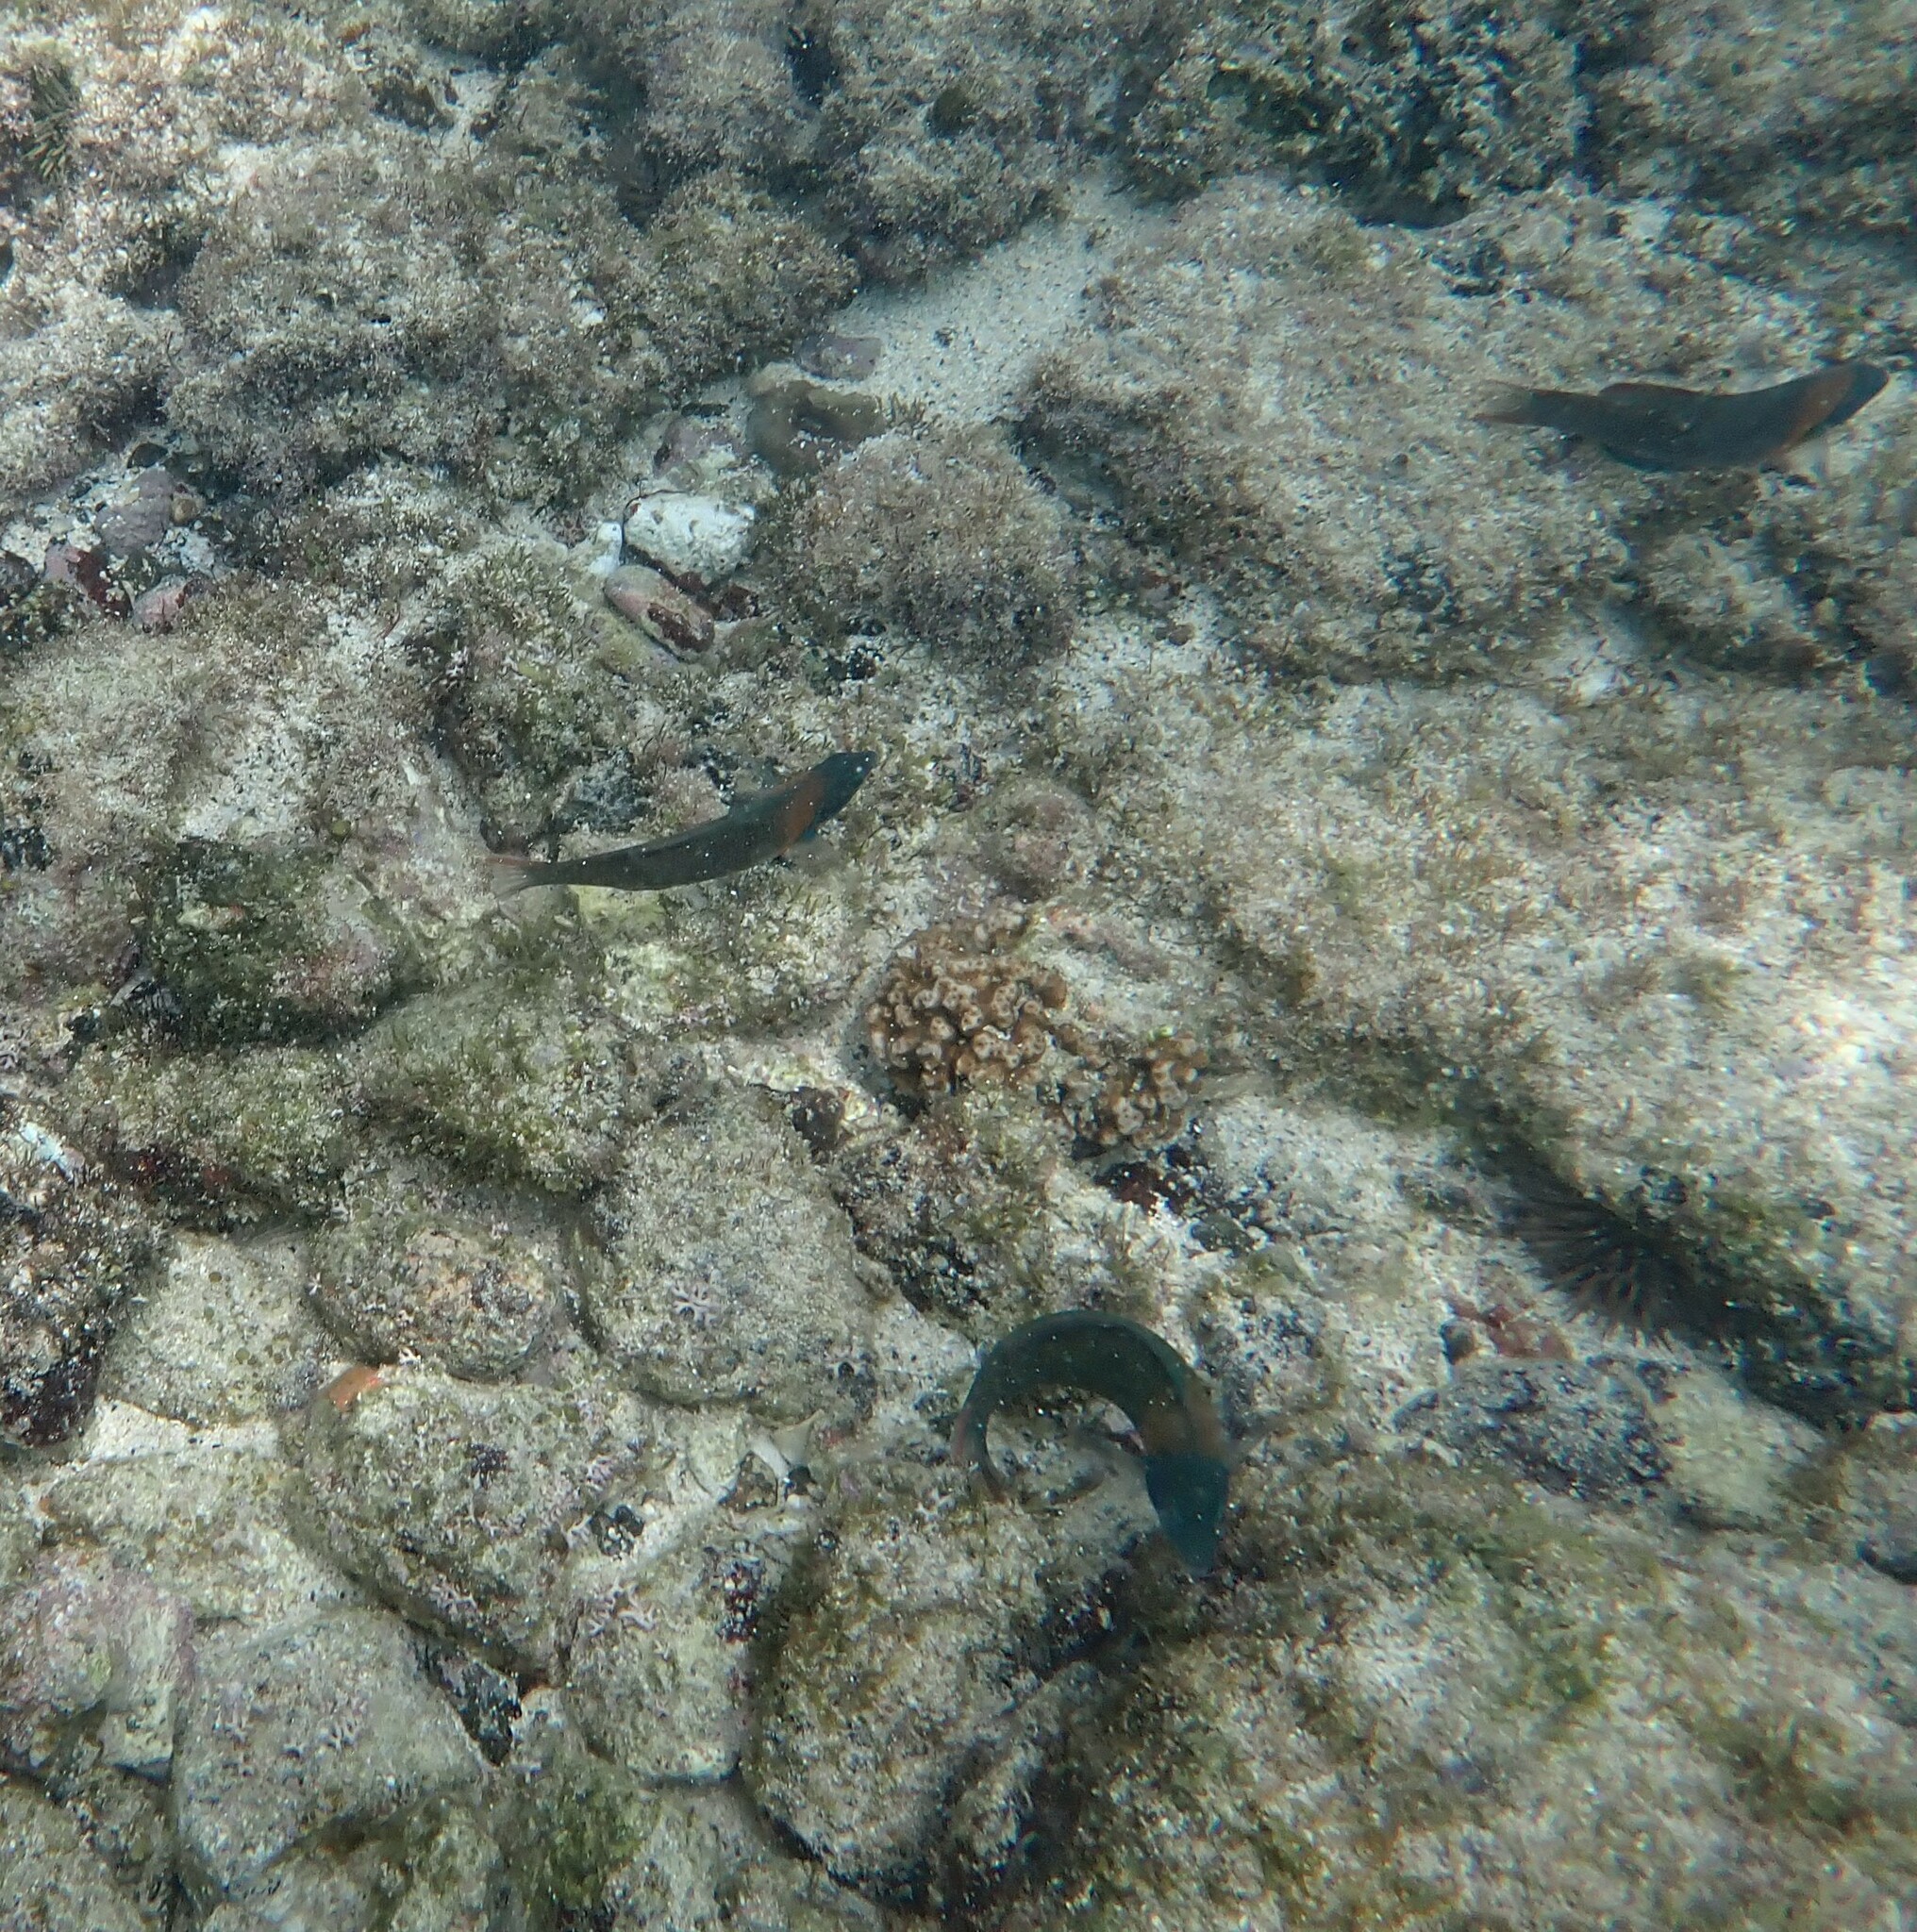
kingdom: Animalia
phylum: Chordata
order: Perciformes
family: Labridae
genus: Thalassoma
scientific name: Thalassoma duperrey
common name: Saddle wrasse
